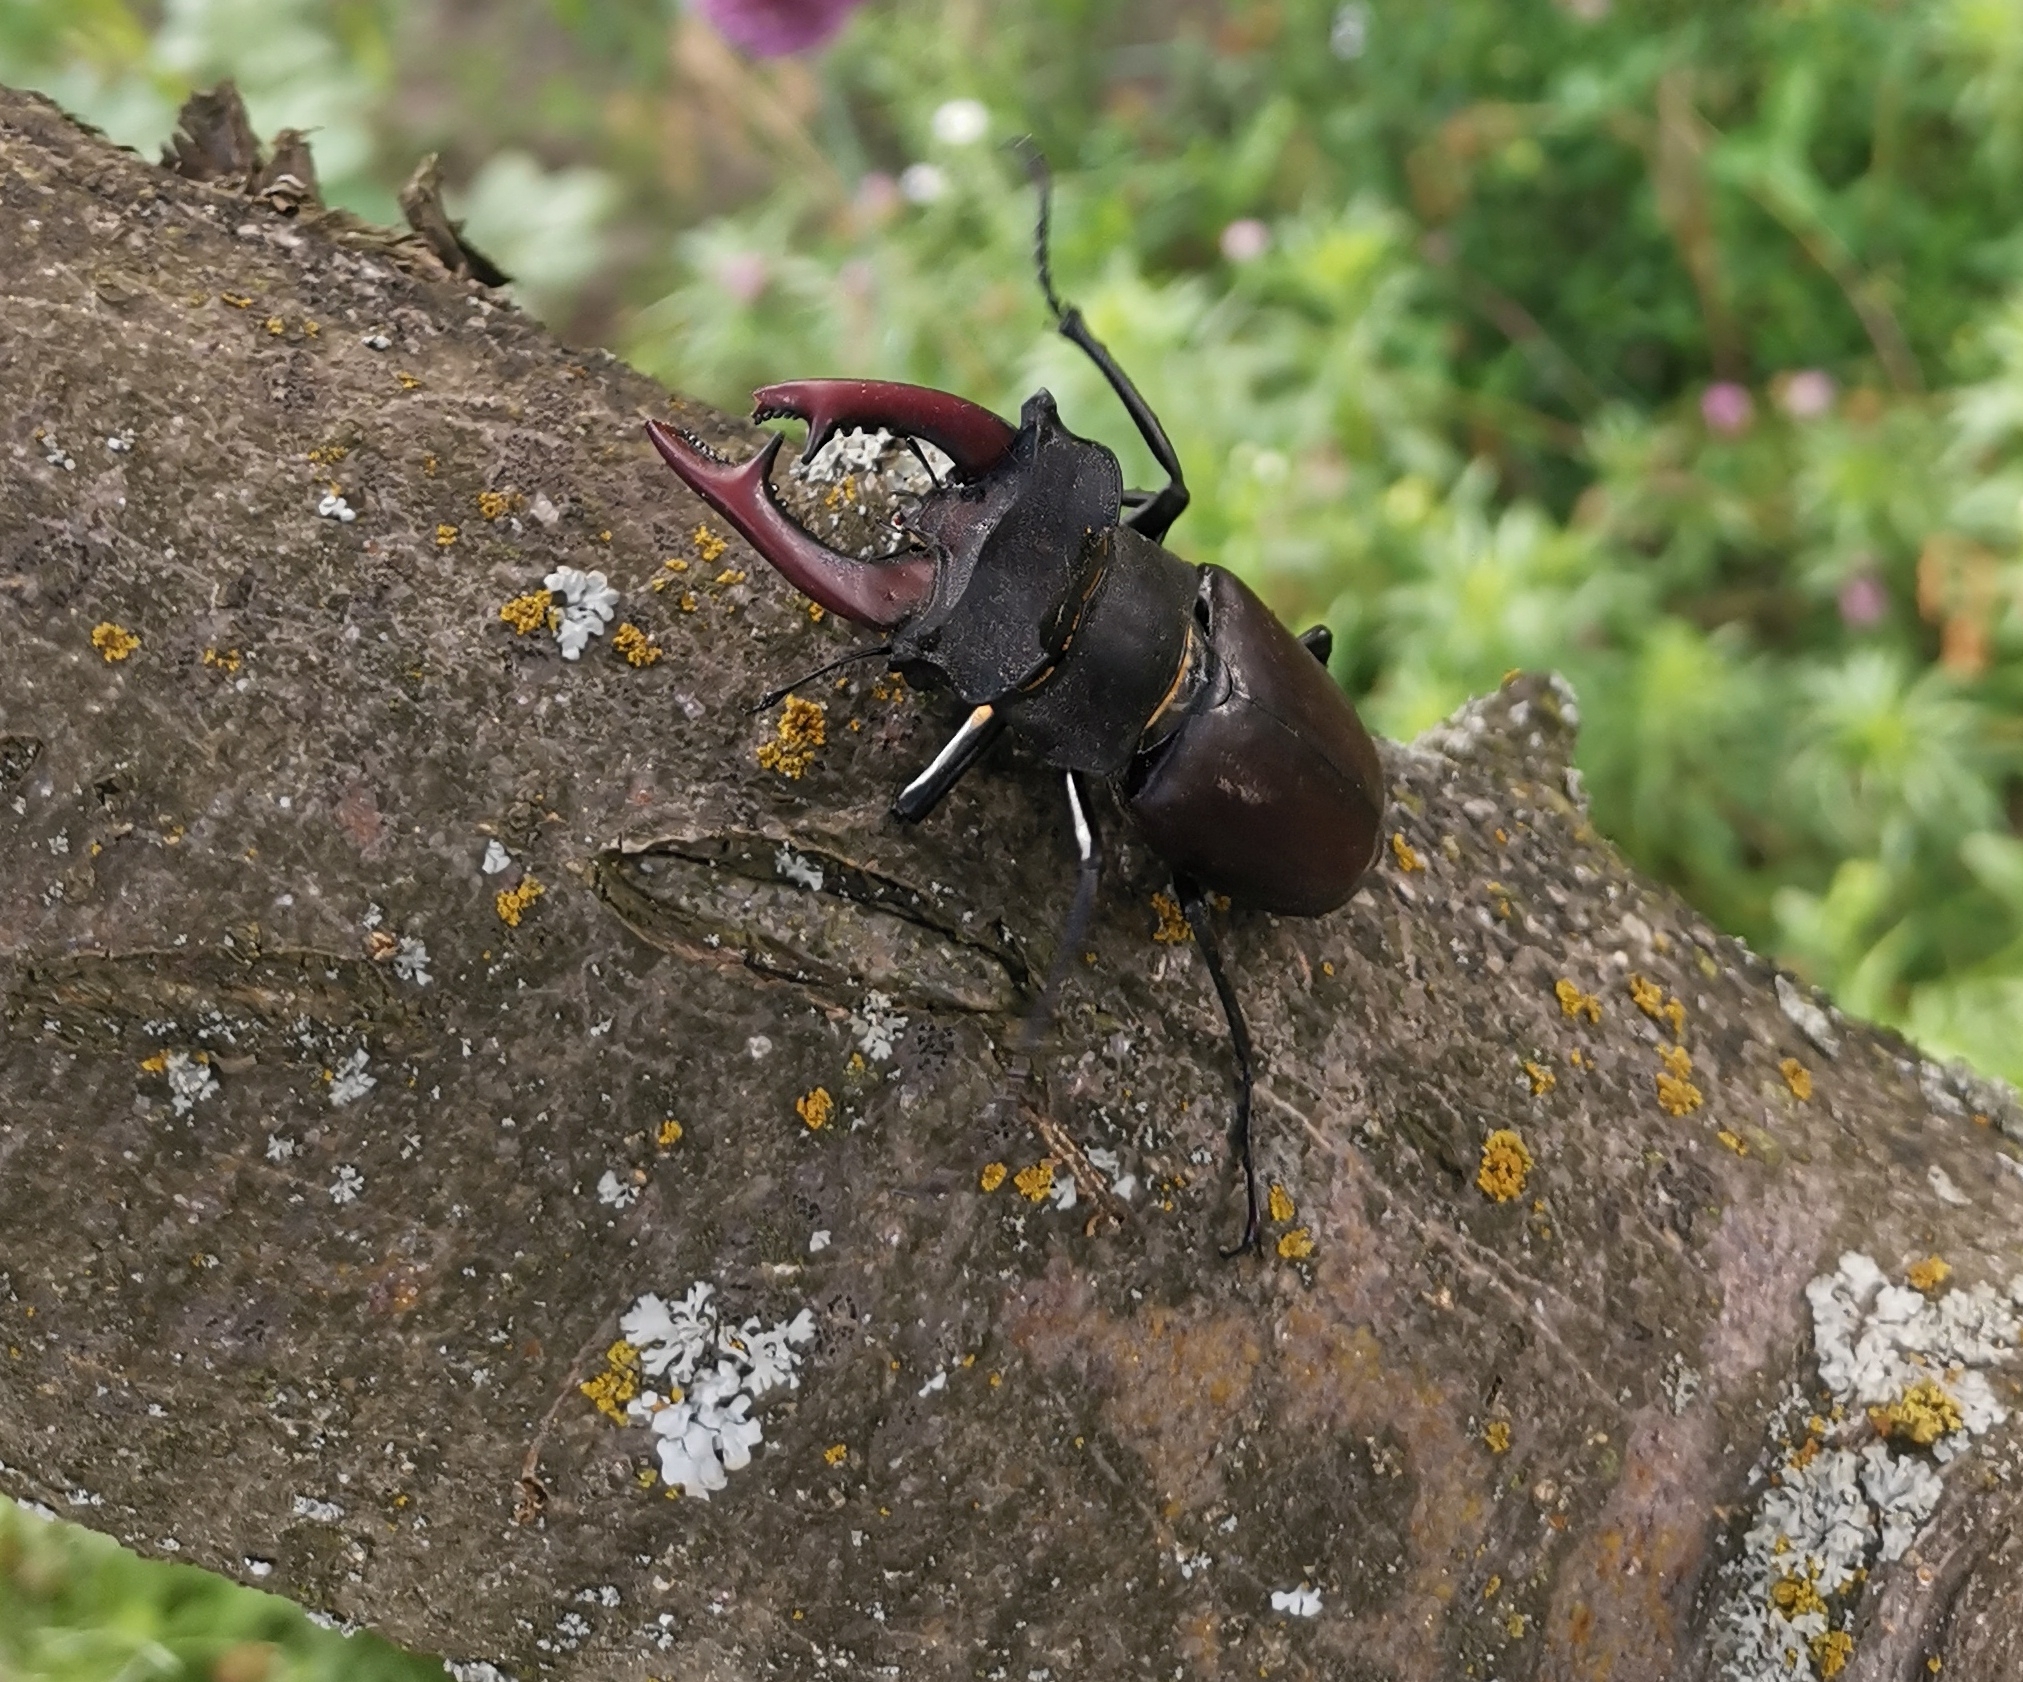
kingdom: Animalia
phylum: Arthropoda
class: Insecta
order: Coleoptera
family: Lucanidae
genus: Lucanus
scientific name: Lucanus cervus
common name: Stag beetle
